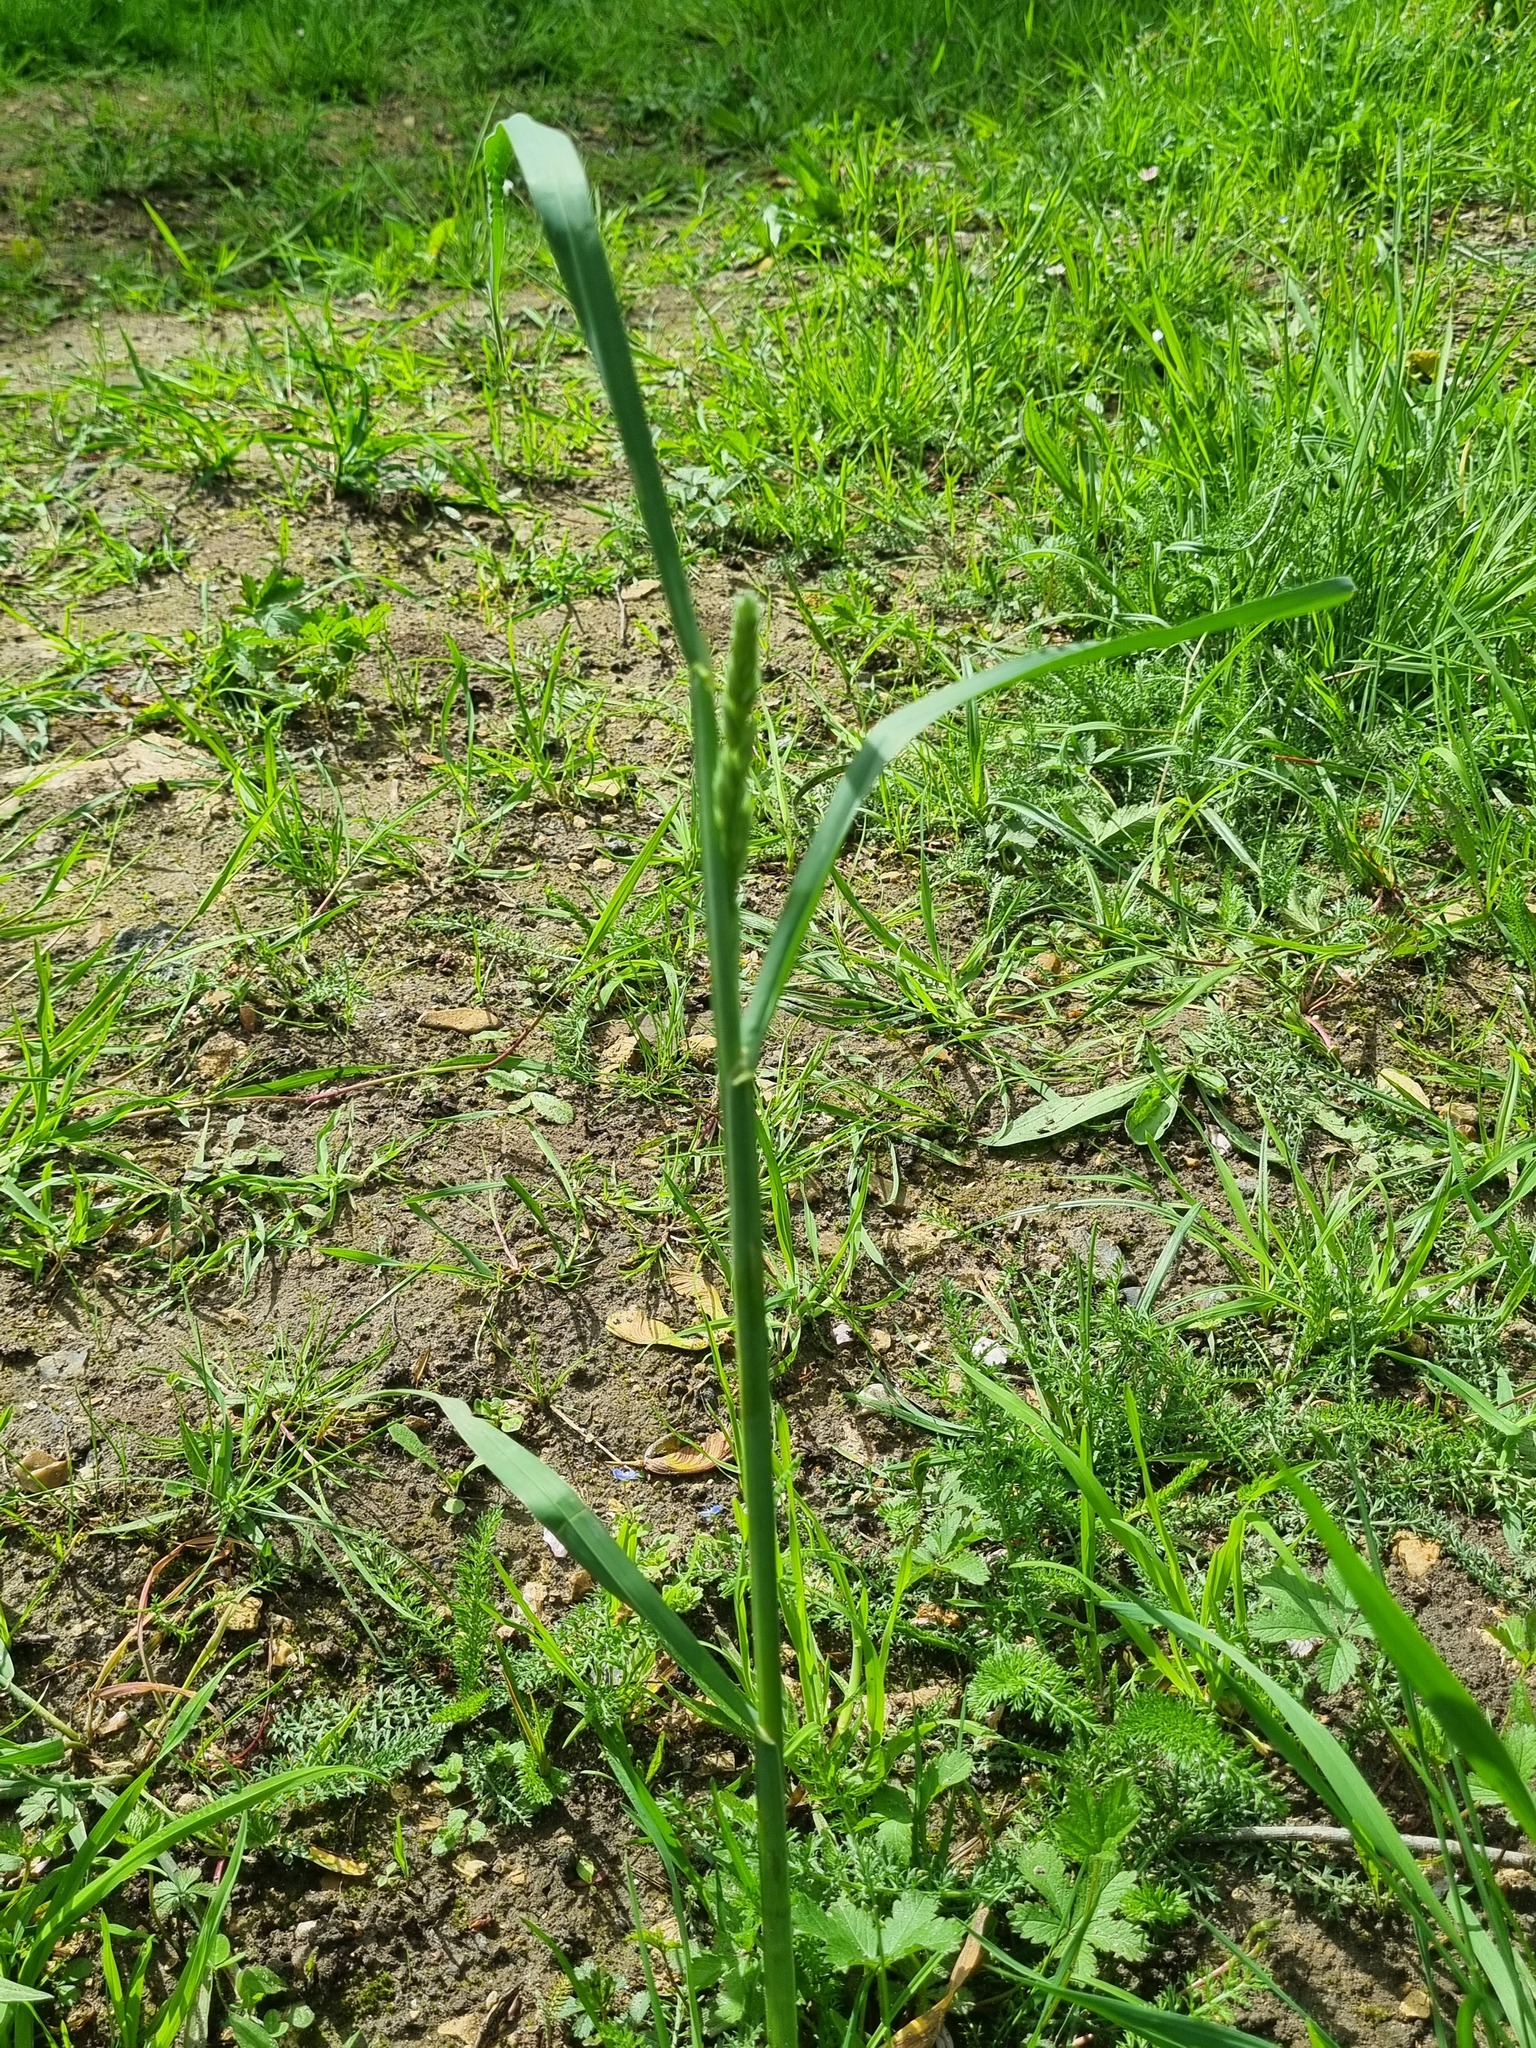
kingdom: Plantae
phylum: Tracheophyta
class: Liliopsida
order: Poales
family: Poaceae
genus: Dactylis
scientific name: Dactylis glomerata
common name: Orchardgrass
